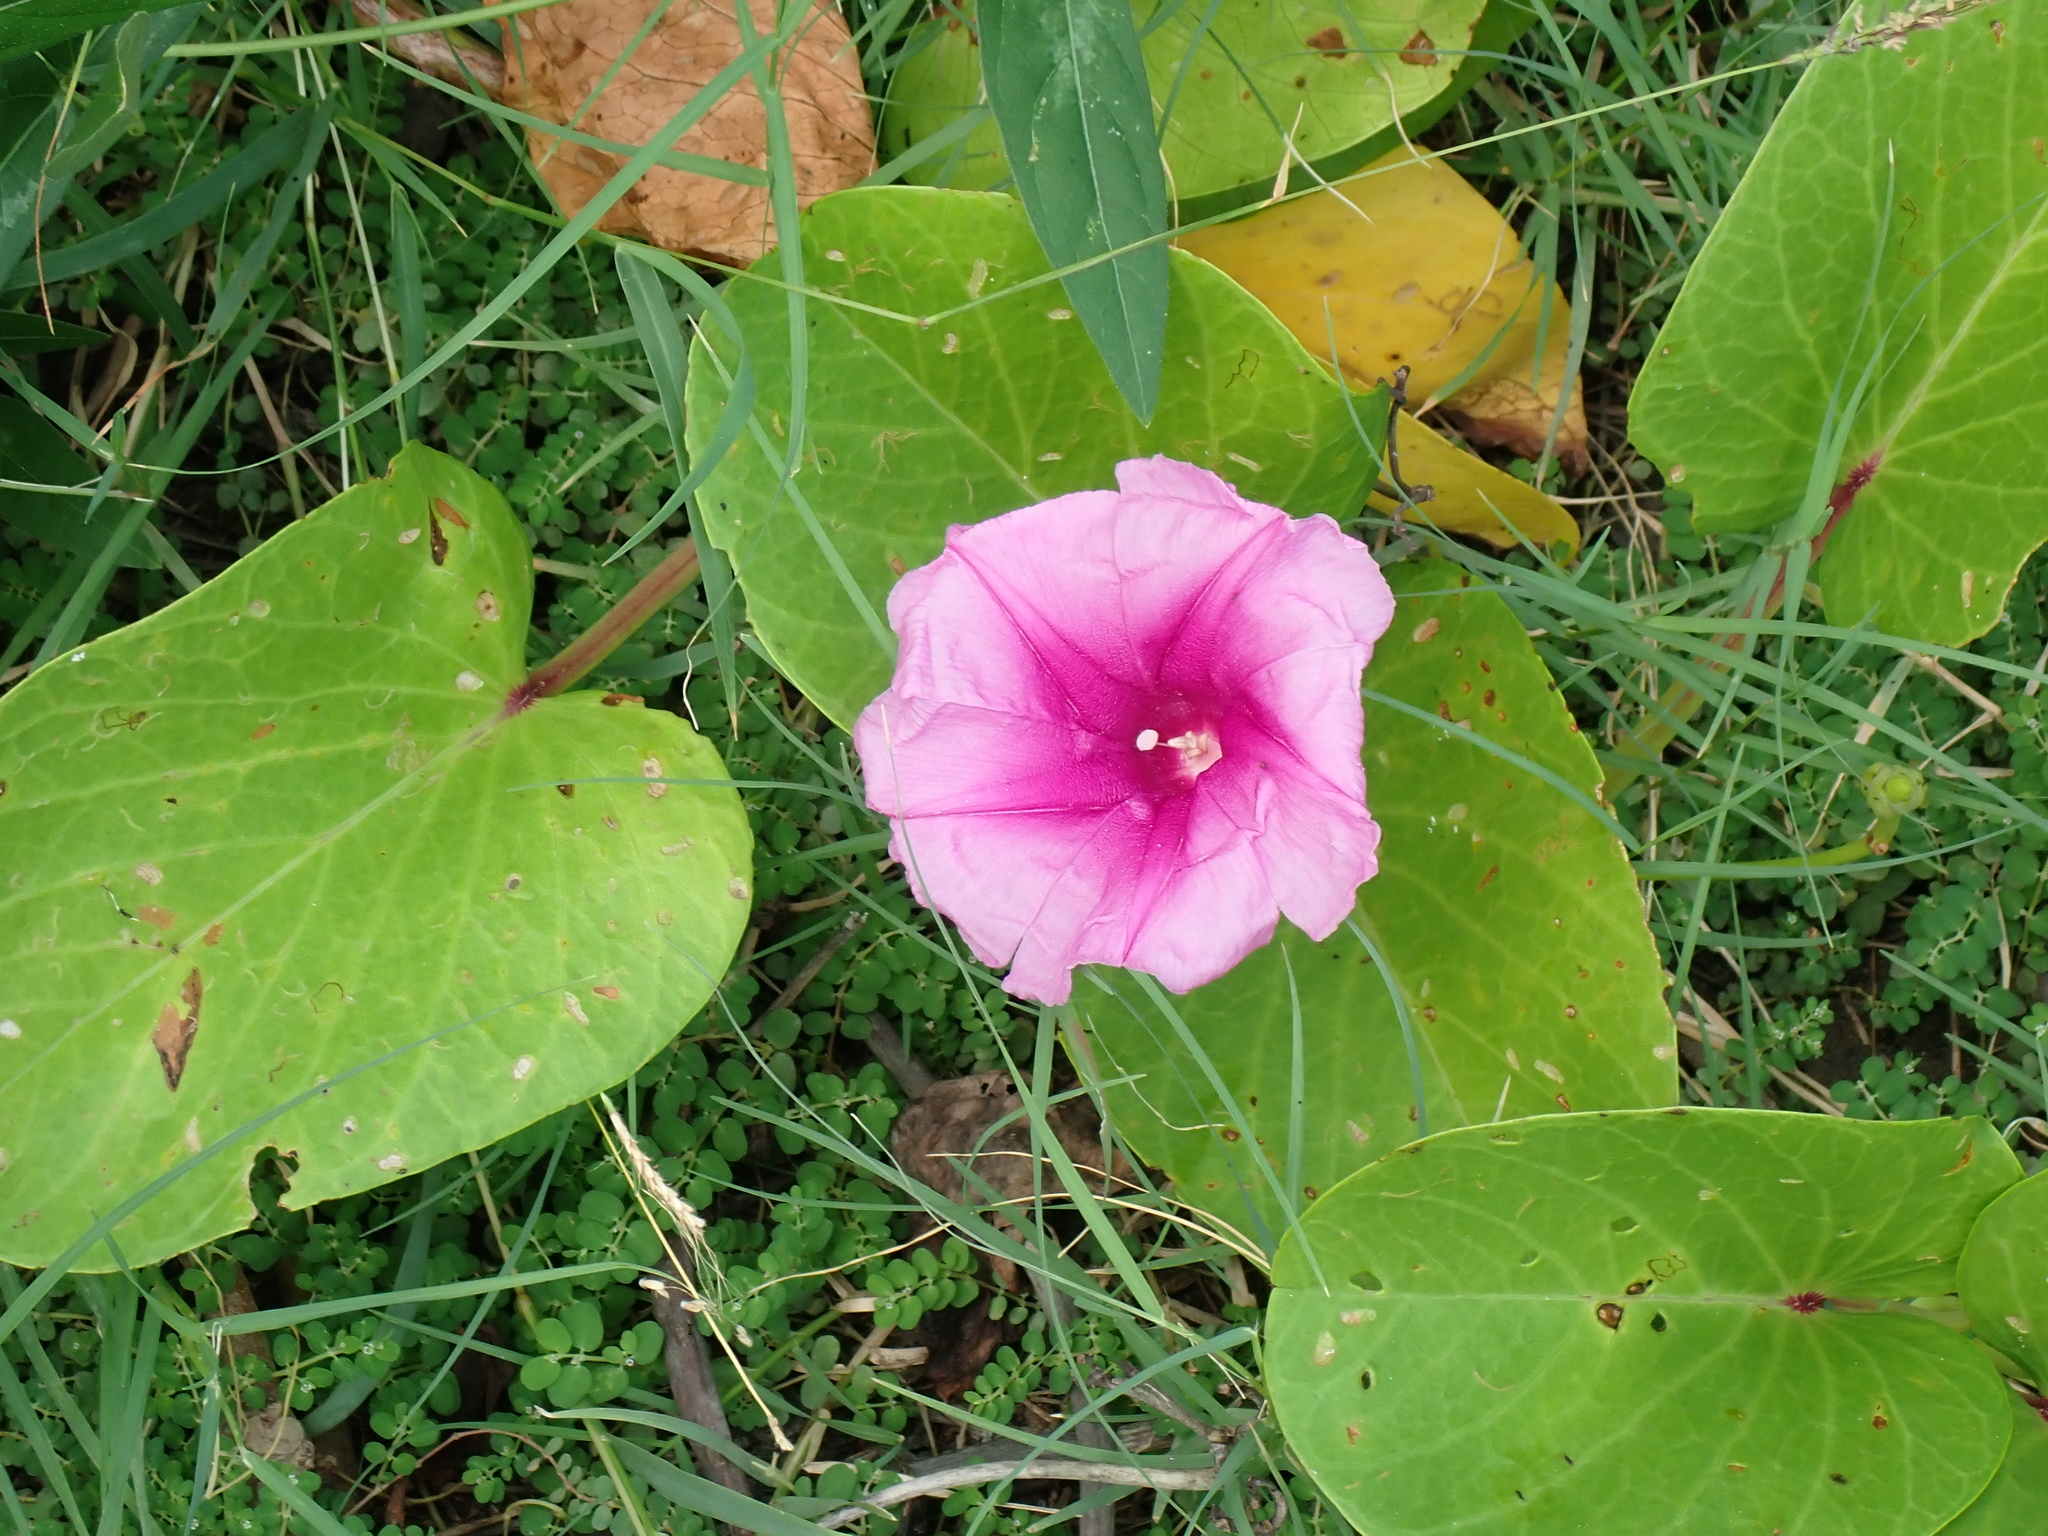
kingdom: Plantae
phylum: Tracheophyta
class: Magnoliopsida
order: Solanales
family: Convolvulaceae
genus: Ipomoea
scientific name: Ipomoea pes-caprae
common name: Beach morning glory
